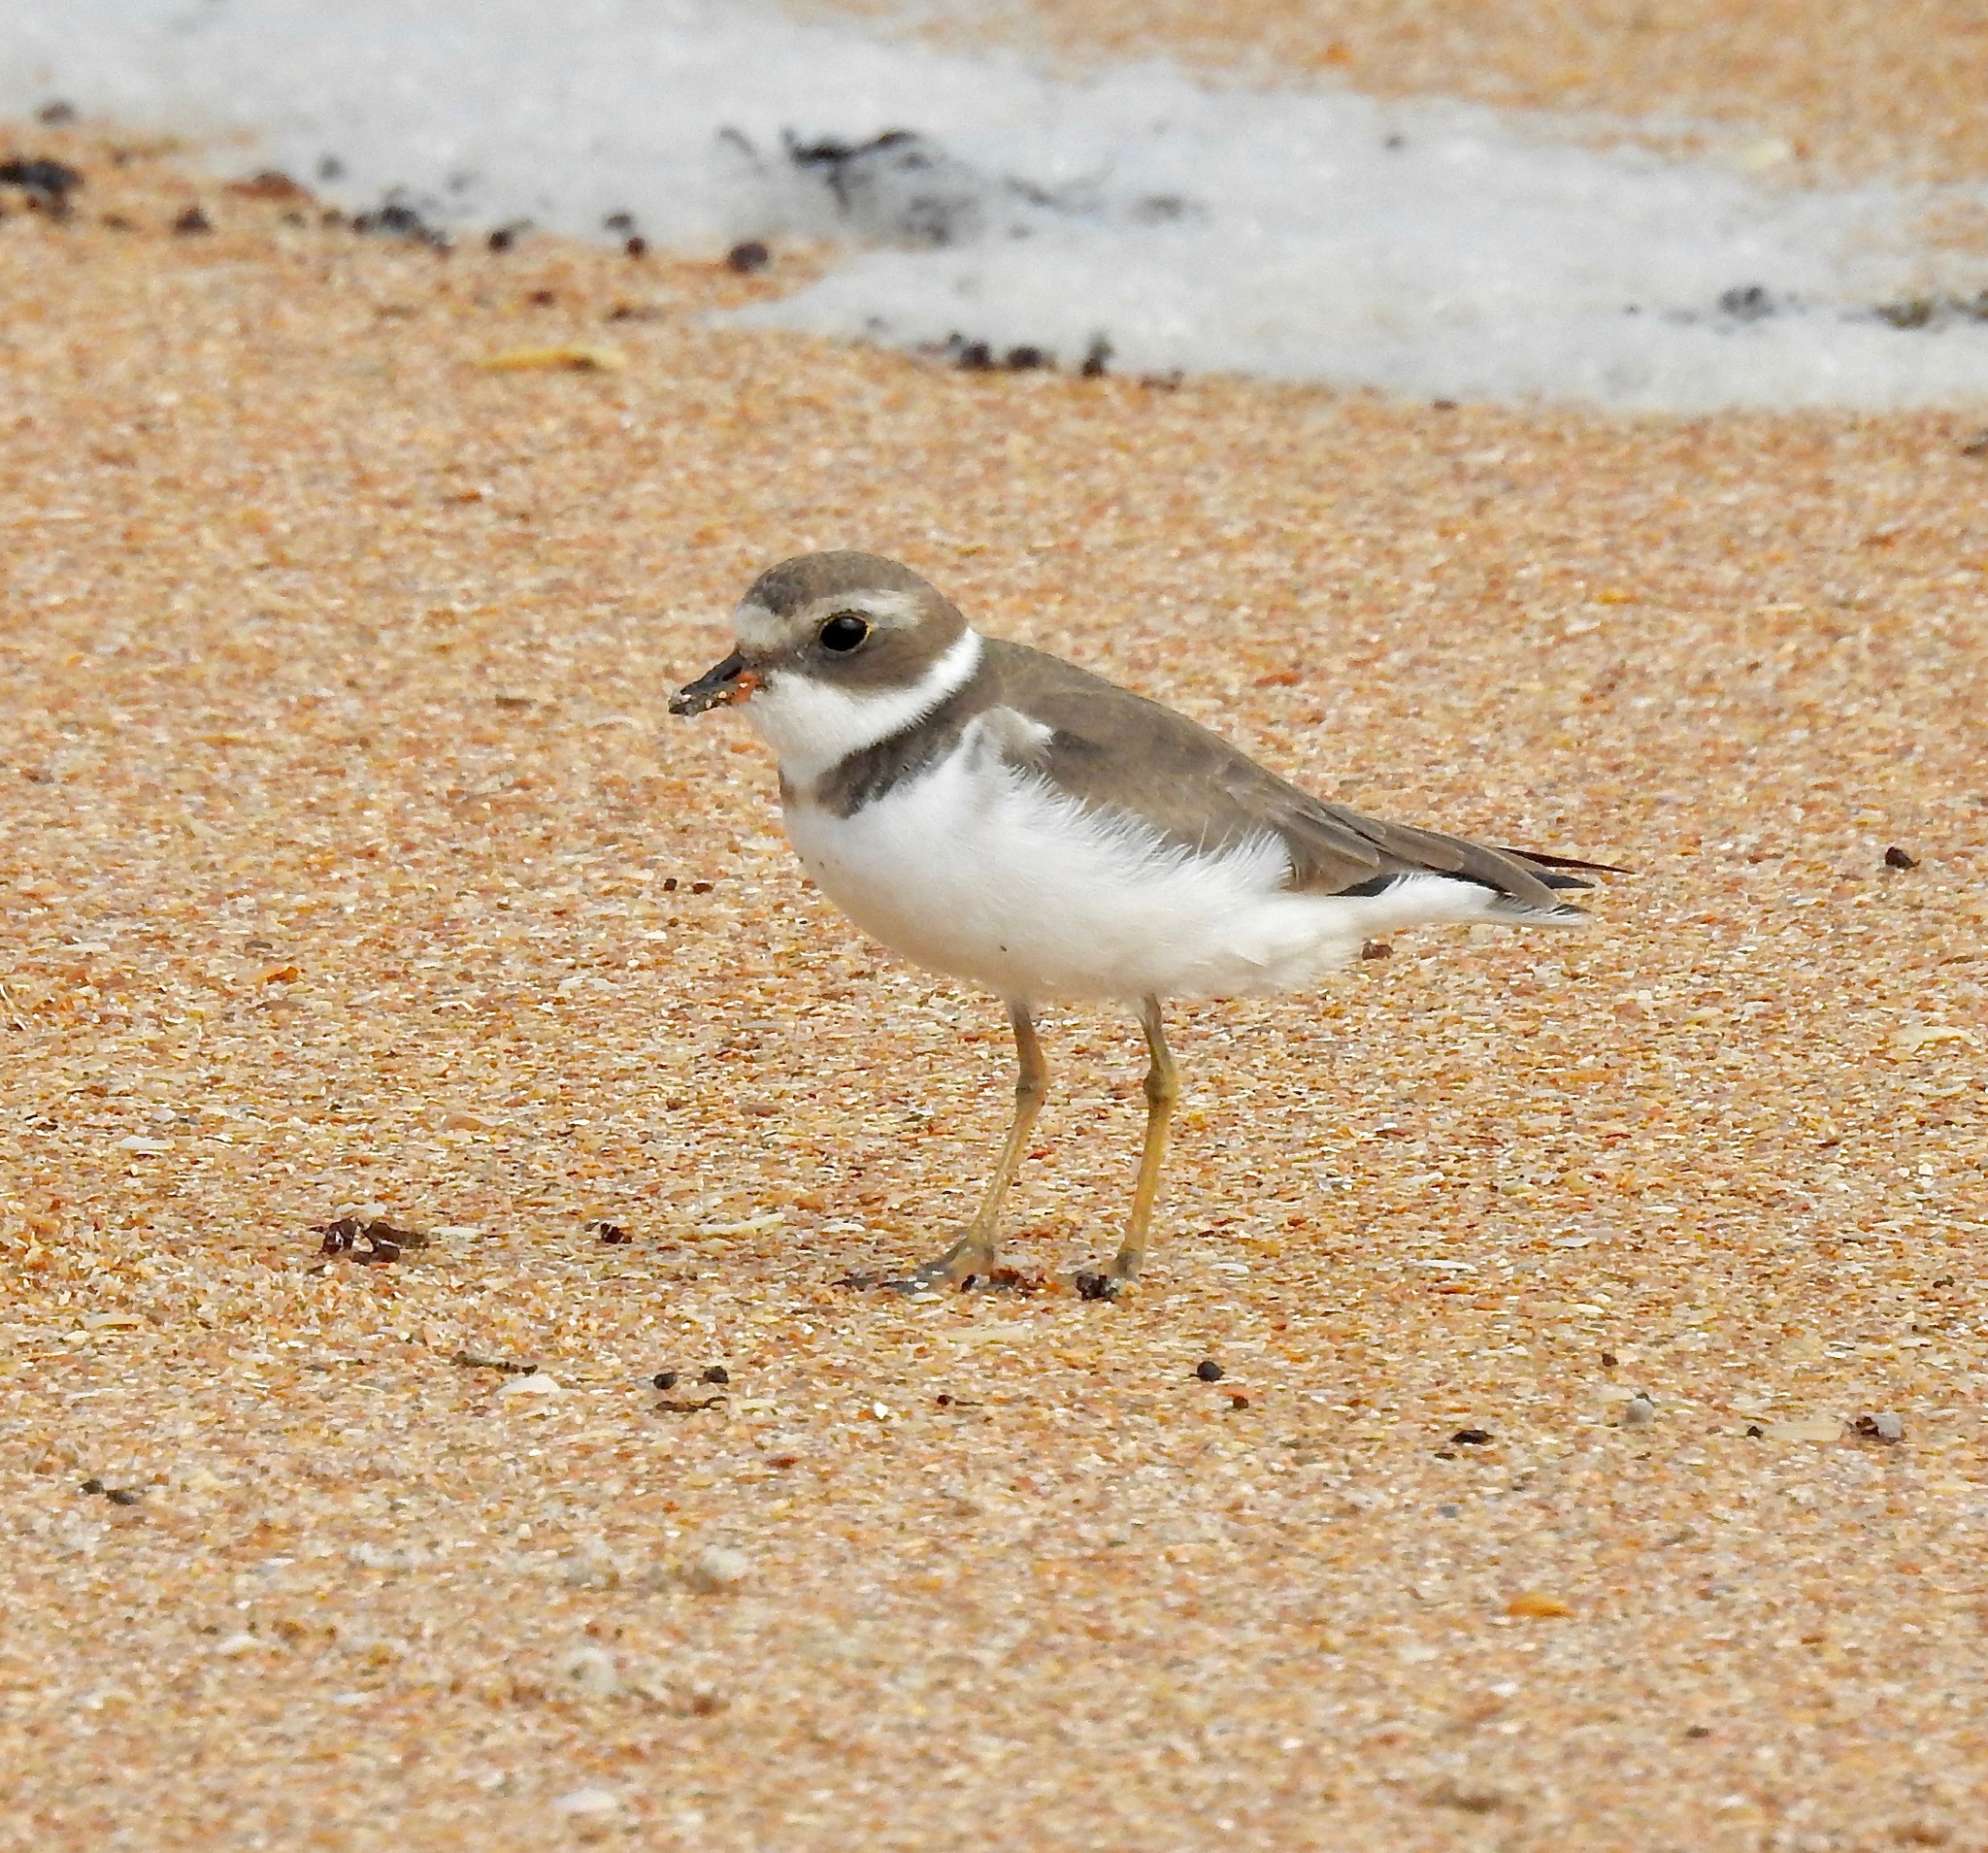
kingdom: Animalia
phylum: Chordata
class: Aves
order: Charadriiformes
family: Charadriidae
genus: Charadrius
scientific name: Charadrius semipalmatus
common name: Semipalmated plover
